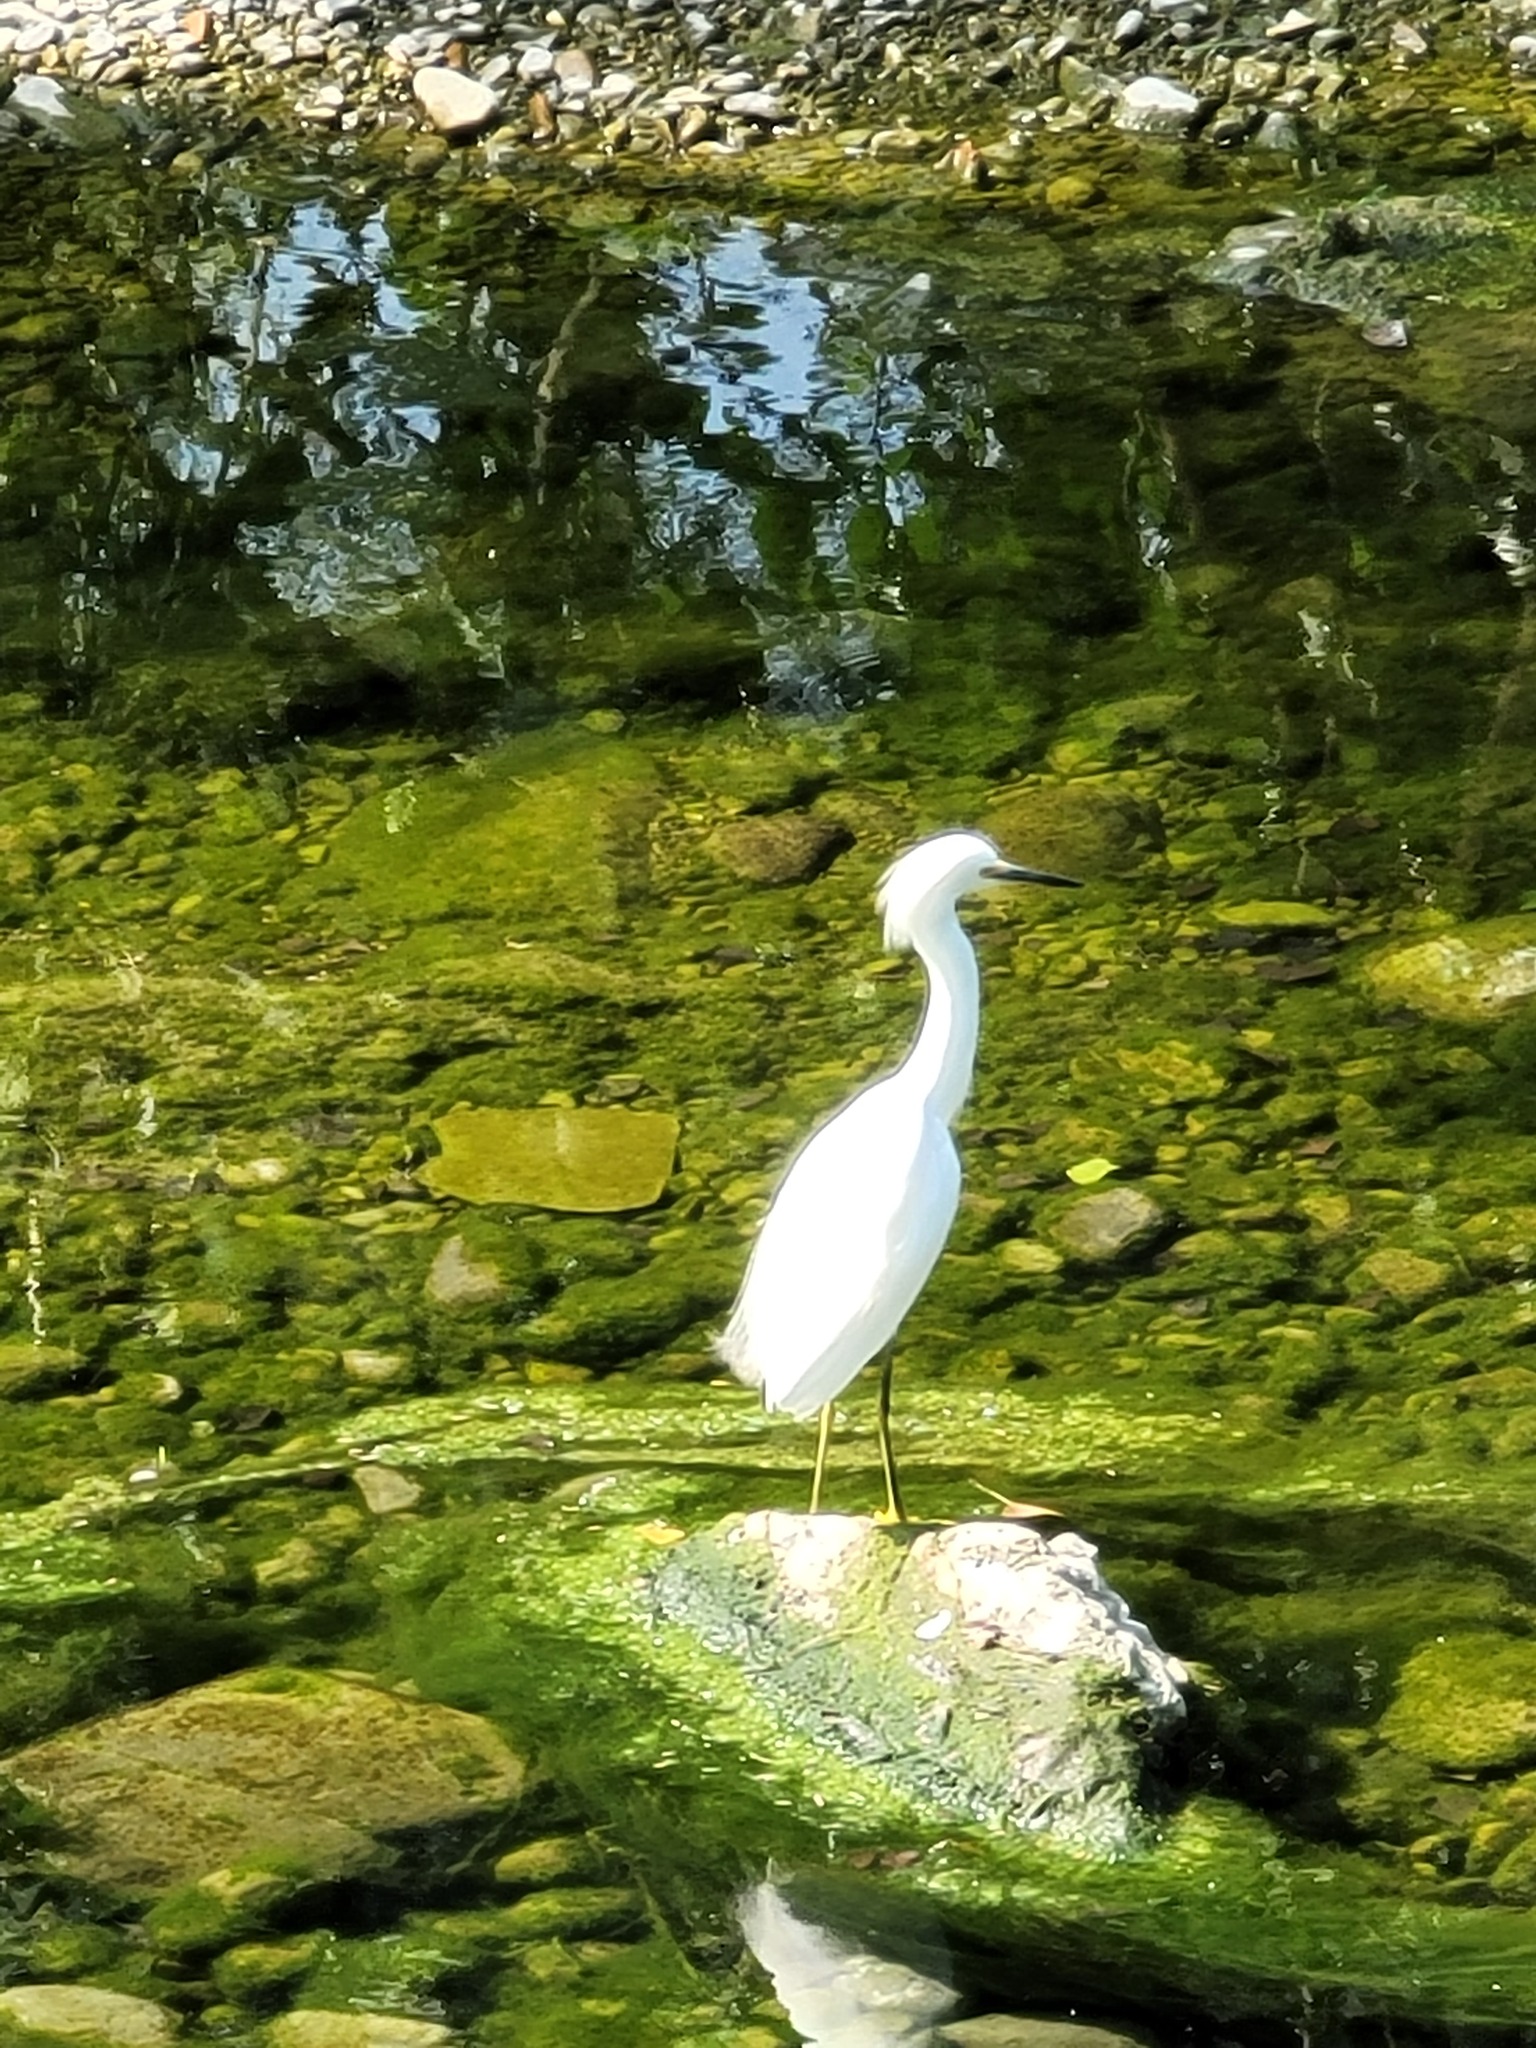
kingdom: Animalia
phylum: Chordata
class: Aves
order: Pelecaniformes
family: Ardeidae
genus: Egretta
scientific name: Egretta thula
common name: Snowy egret
